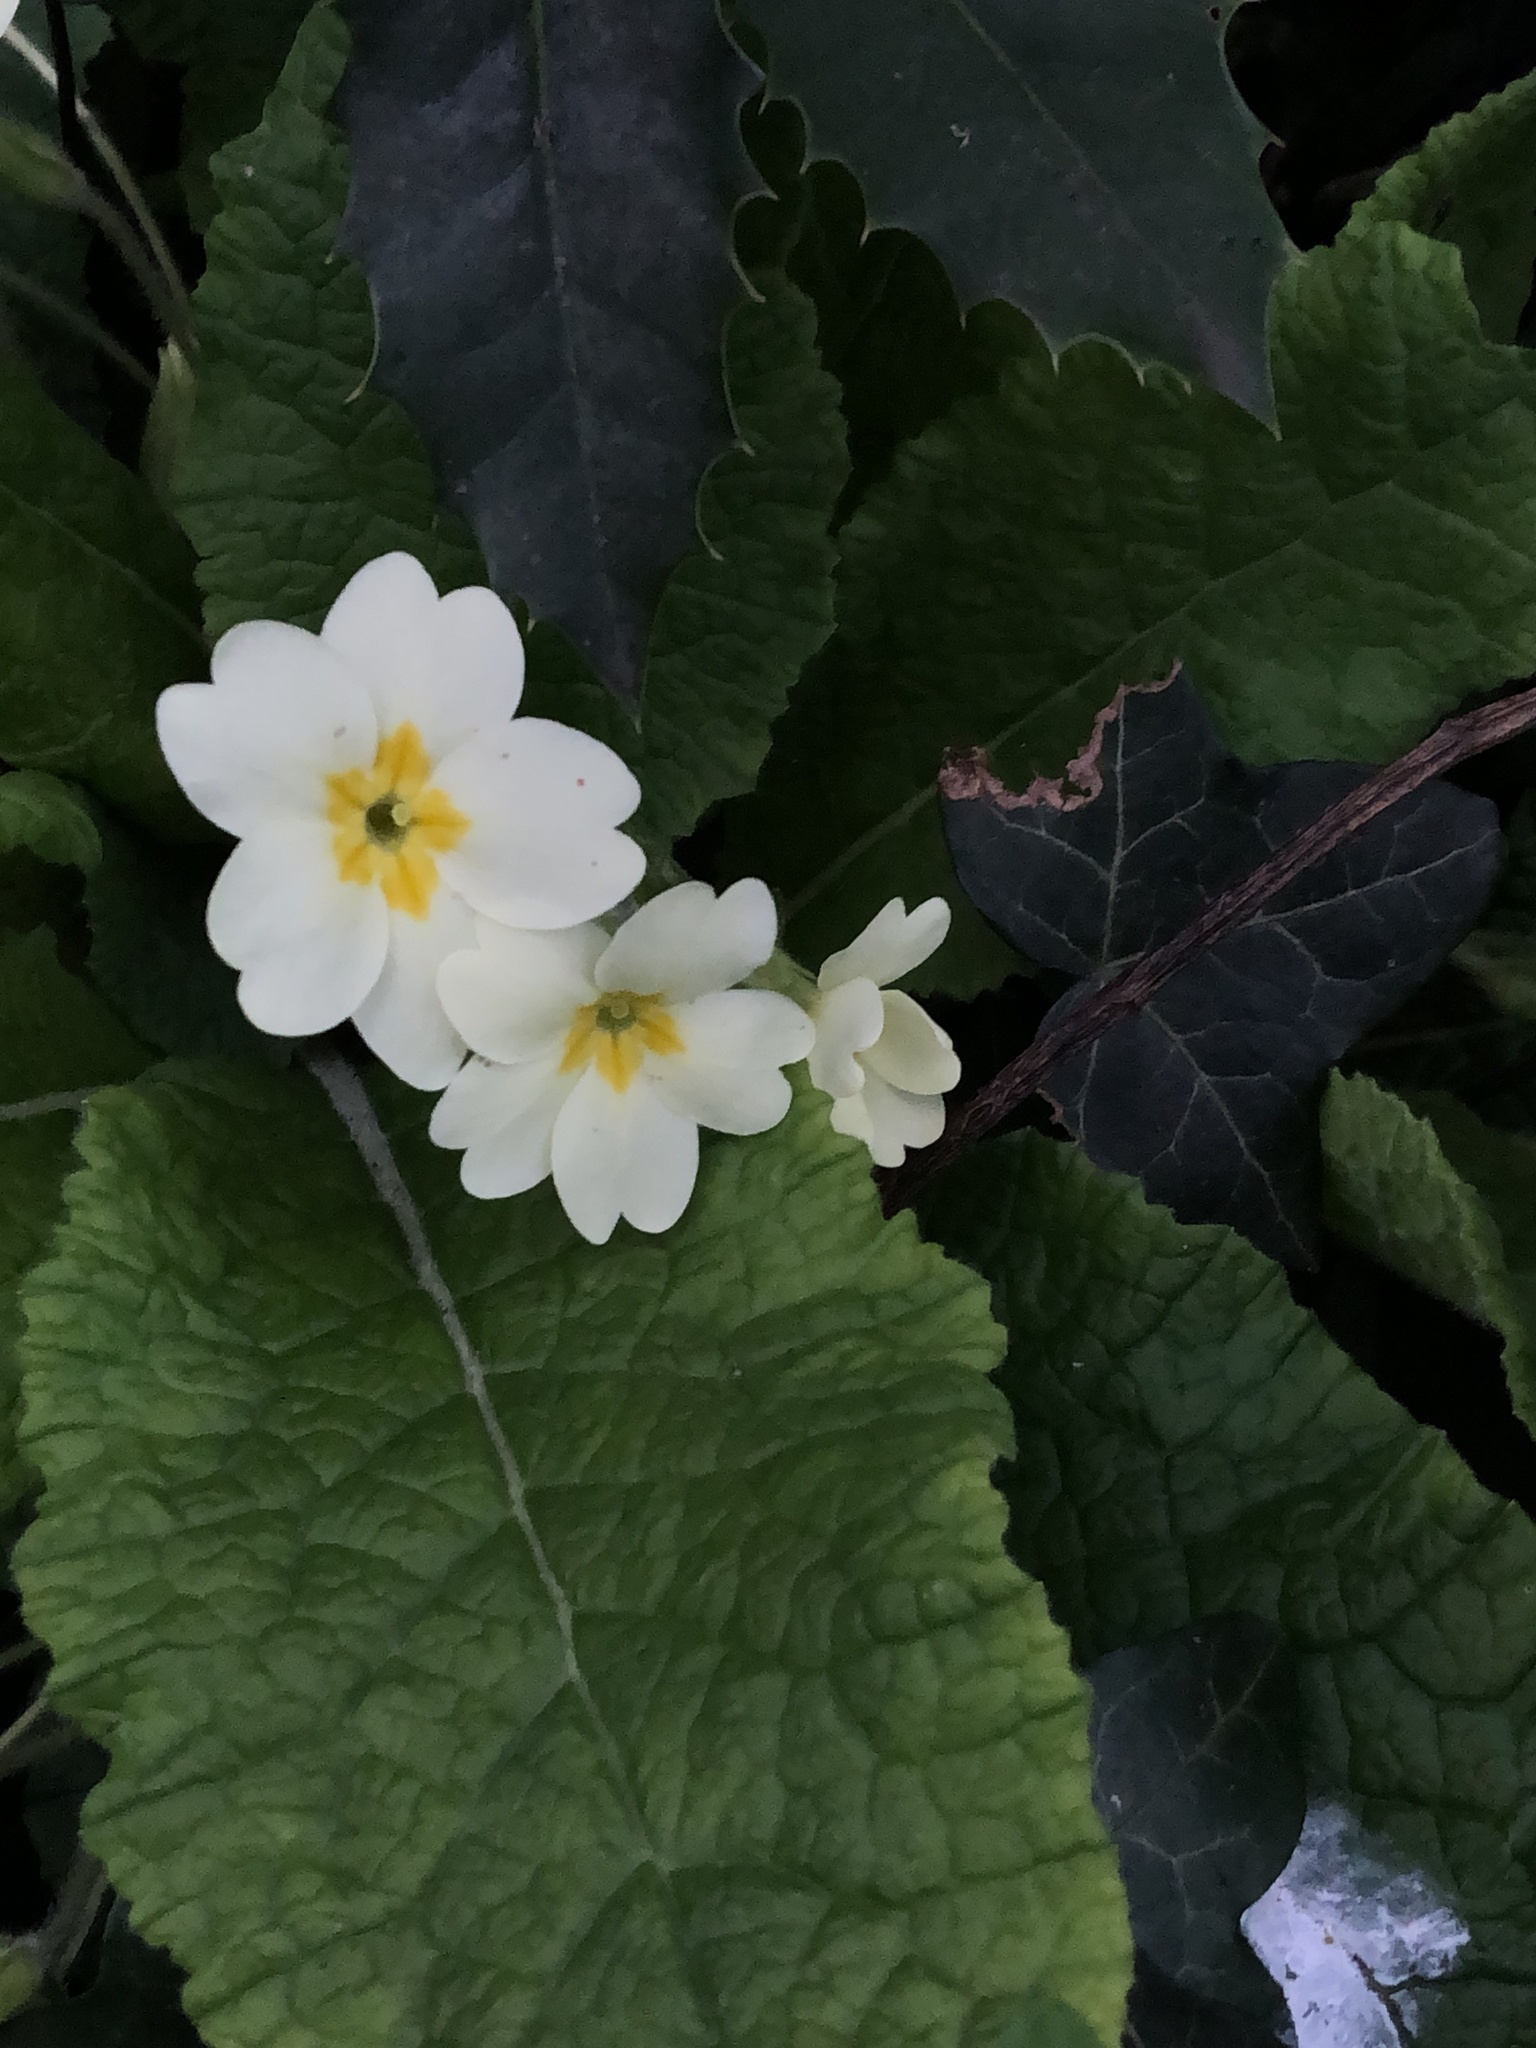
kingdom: Plantae
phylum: Tracheophyta
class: Magnoliopsida
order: Ericales
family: Primulaceae
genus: Primula
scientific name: Primula vulgaris
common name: Primrose
